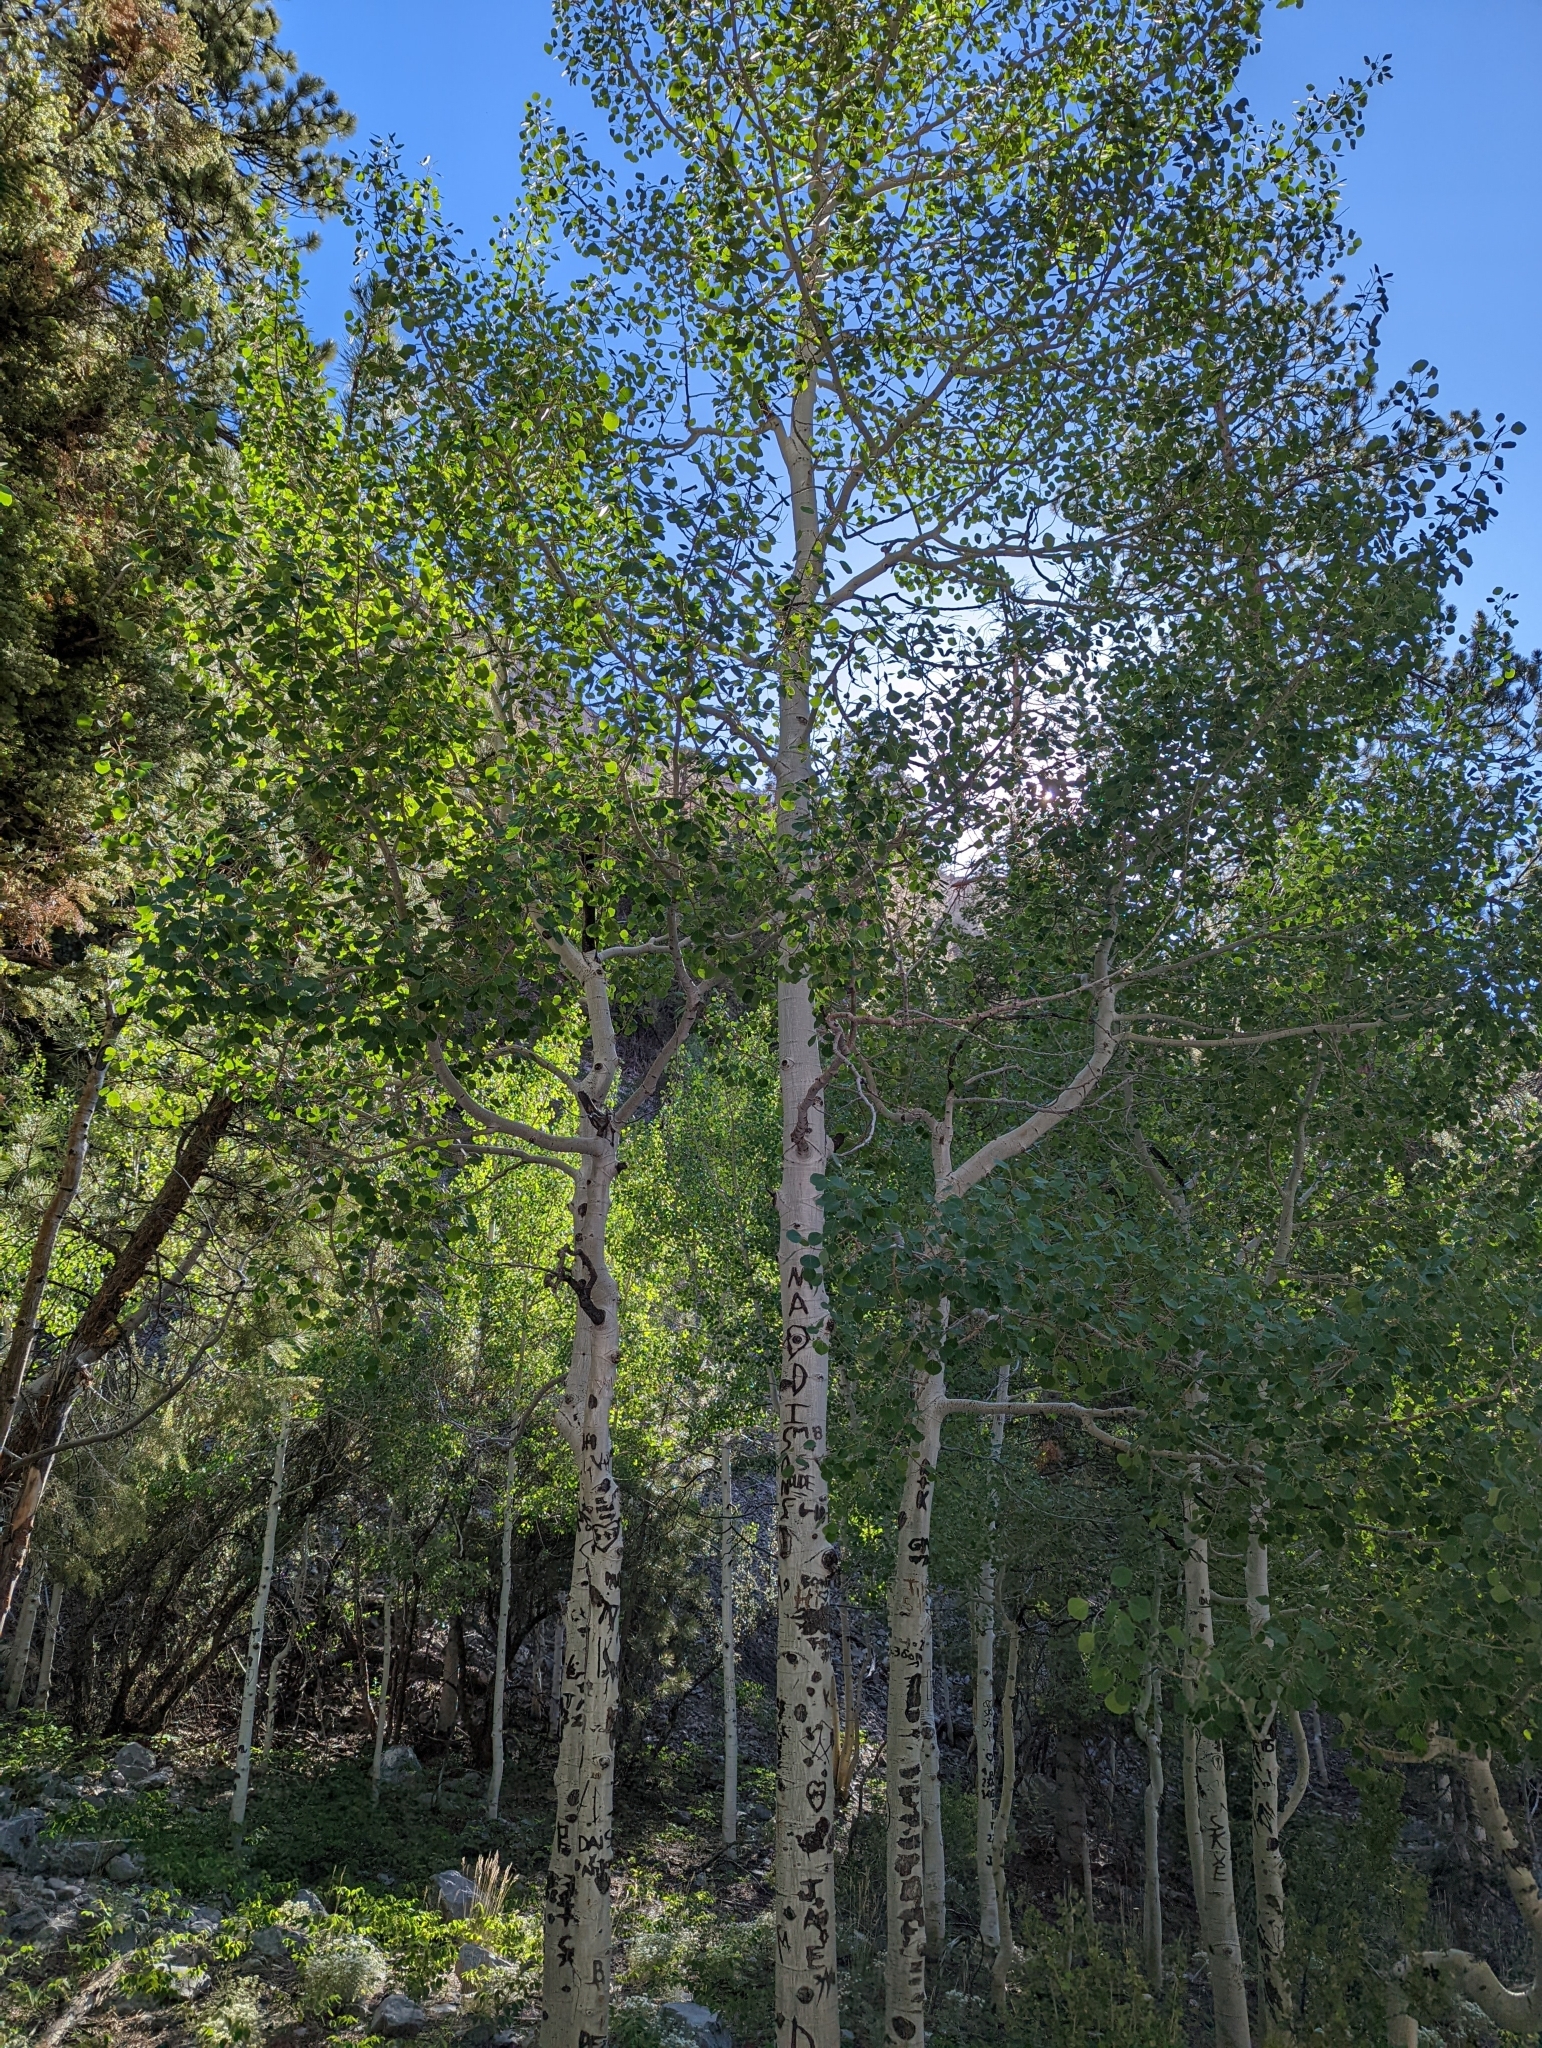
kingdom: Plantae
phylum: Tracheophyta
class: Magnoliopsida
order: Malpighiales
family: Salicaceae
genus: Populus
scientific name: Populus tremuloides
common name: Quaking aspen
